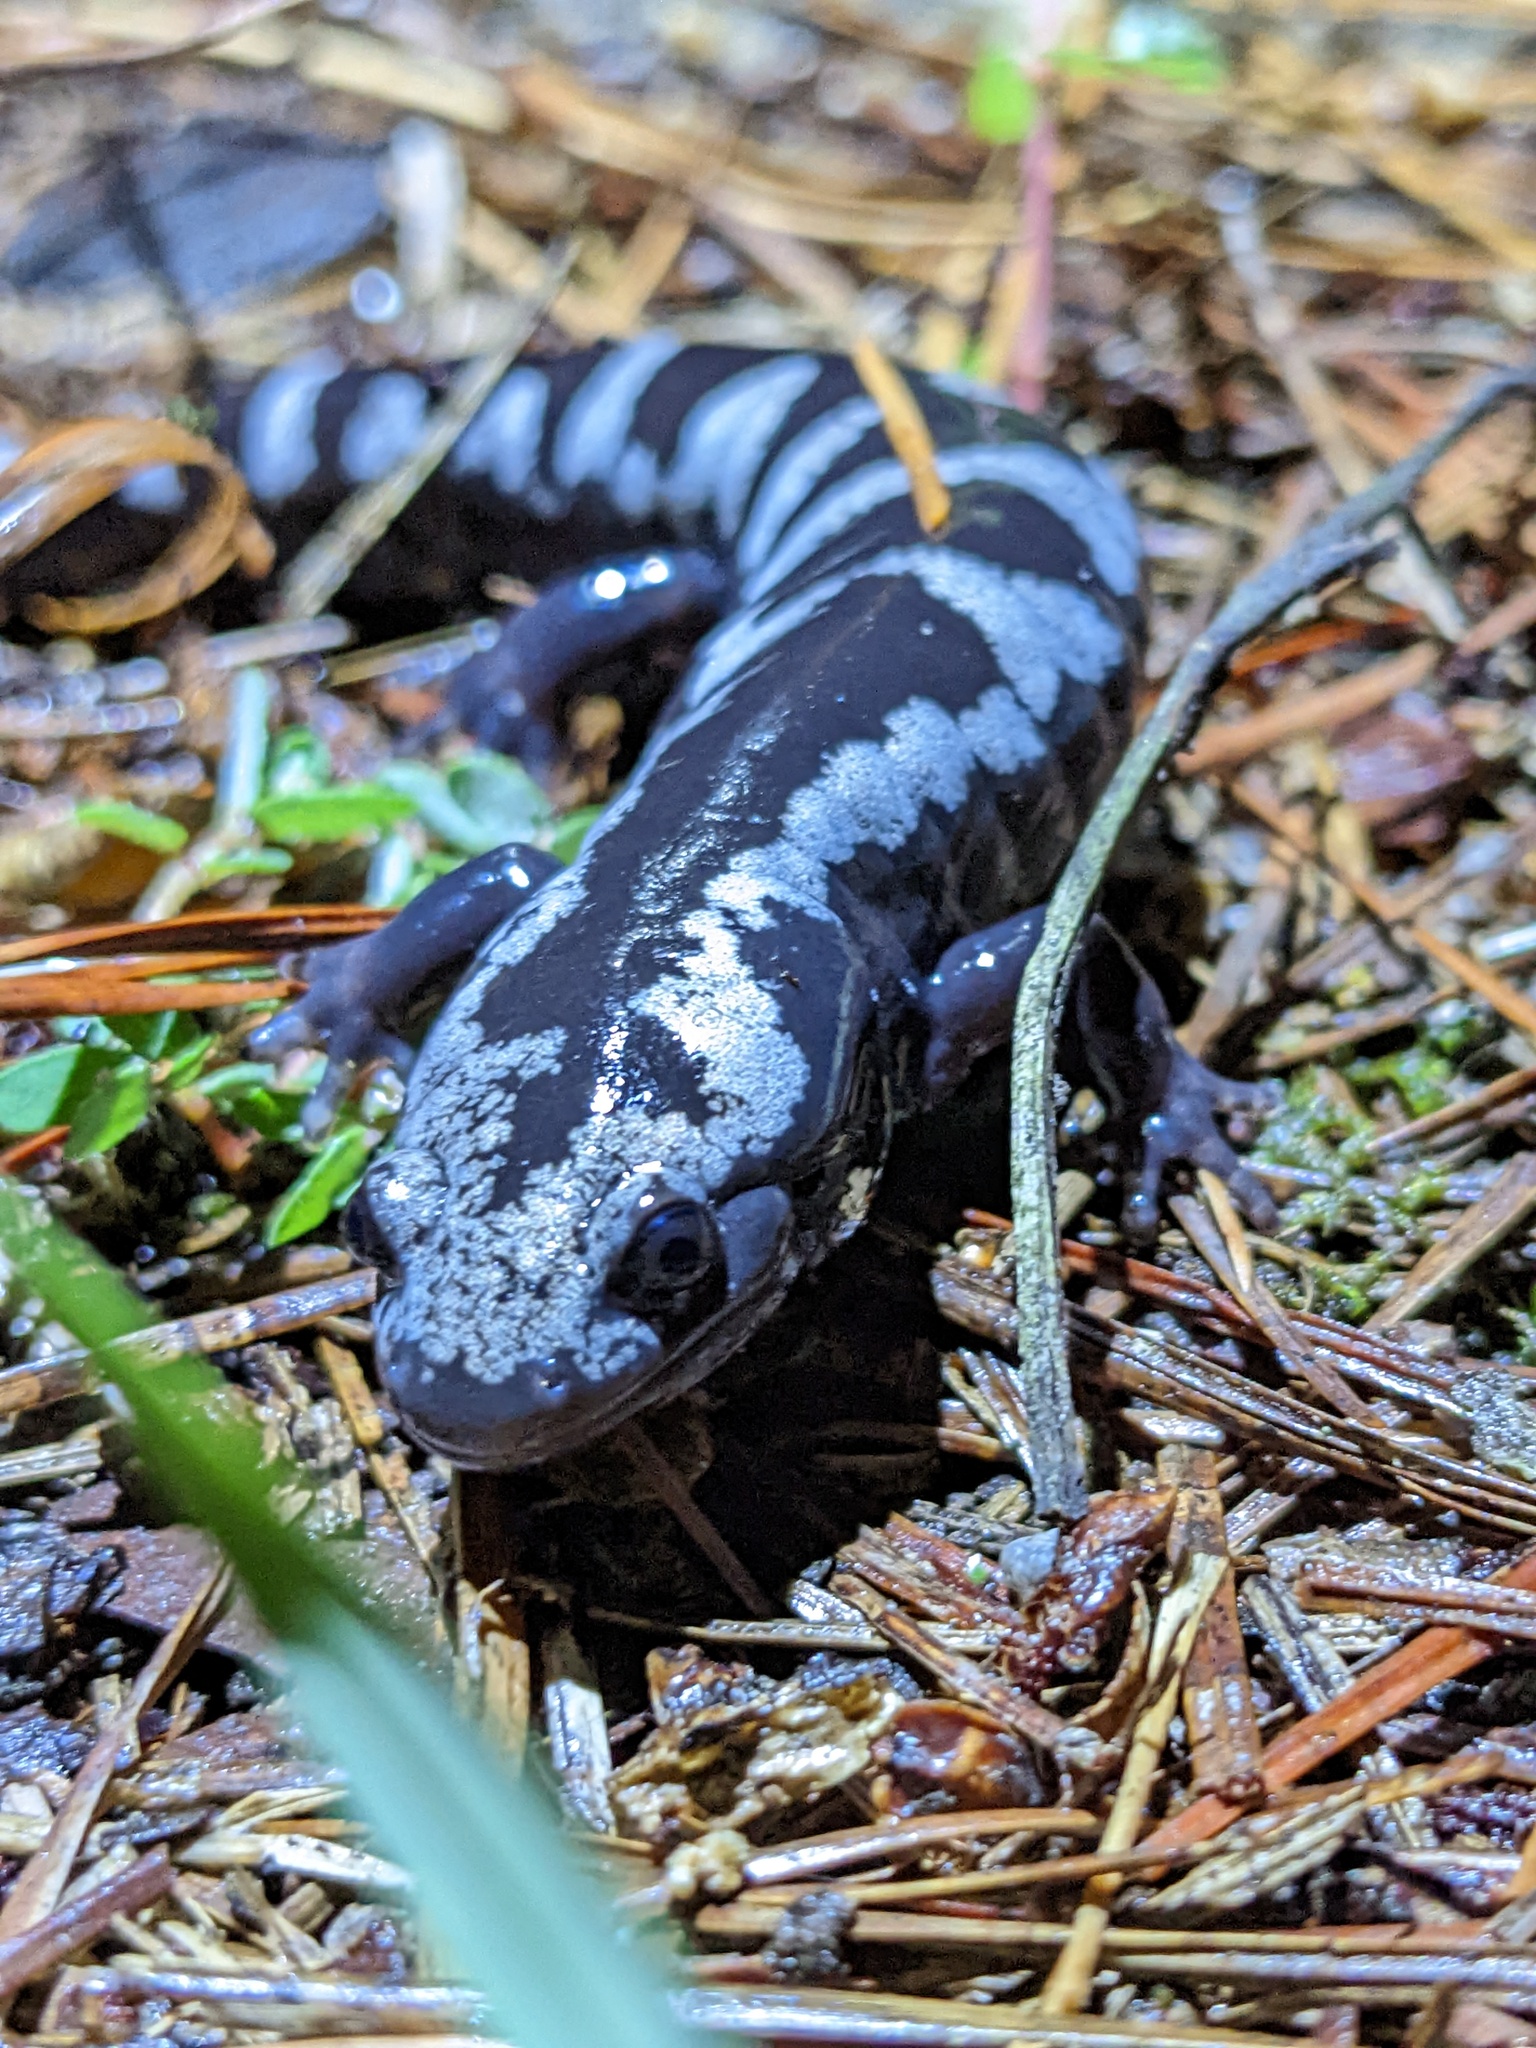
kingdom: Animalia
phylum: Chordata
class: Amphibia
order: Caudata
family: Ambystomatidae
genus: Ambystoma
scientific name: Ambystoma opacum
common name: Marbled salamander
